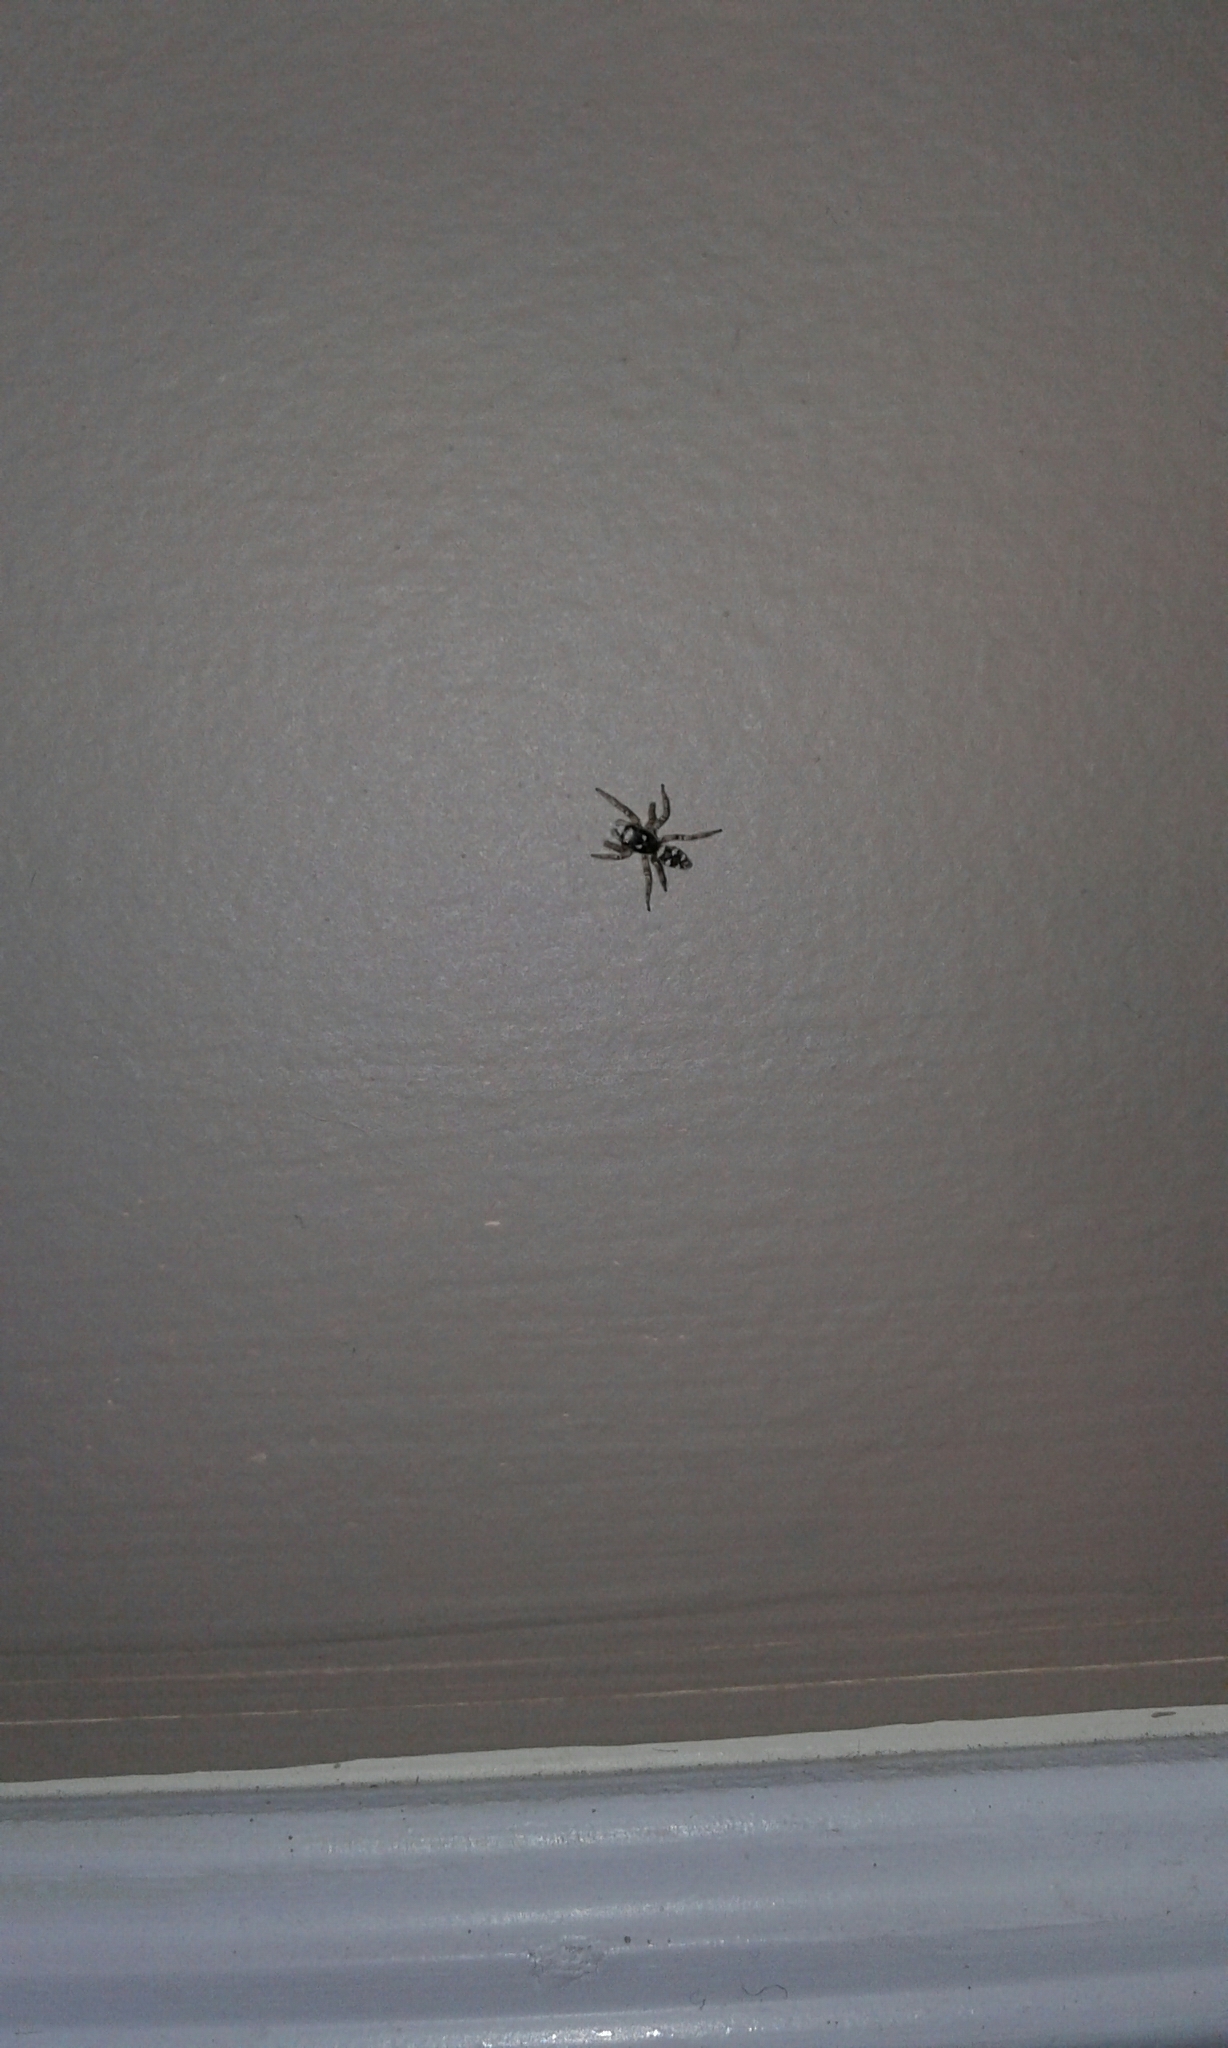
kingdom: Animalia
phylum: Arthropoda
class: Arachnida
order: Araneae
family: Salticidae
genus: Salticus
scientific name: Salticus scenicus
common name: Zebra jumper
